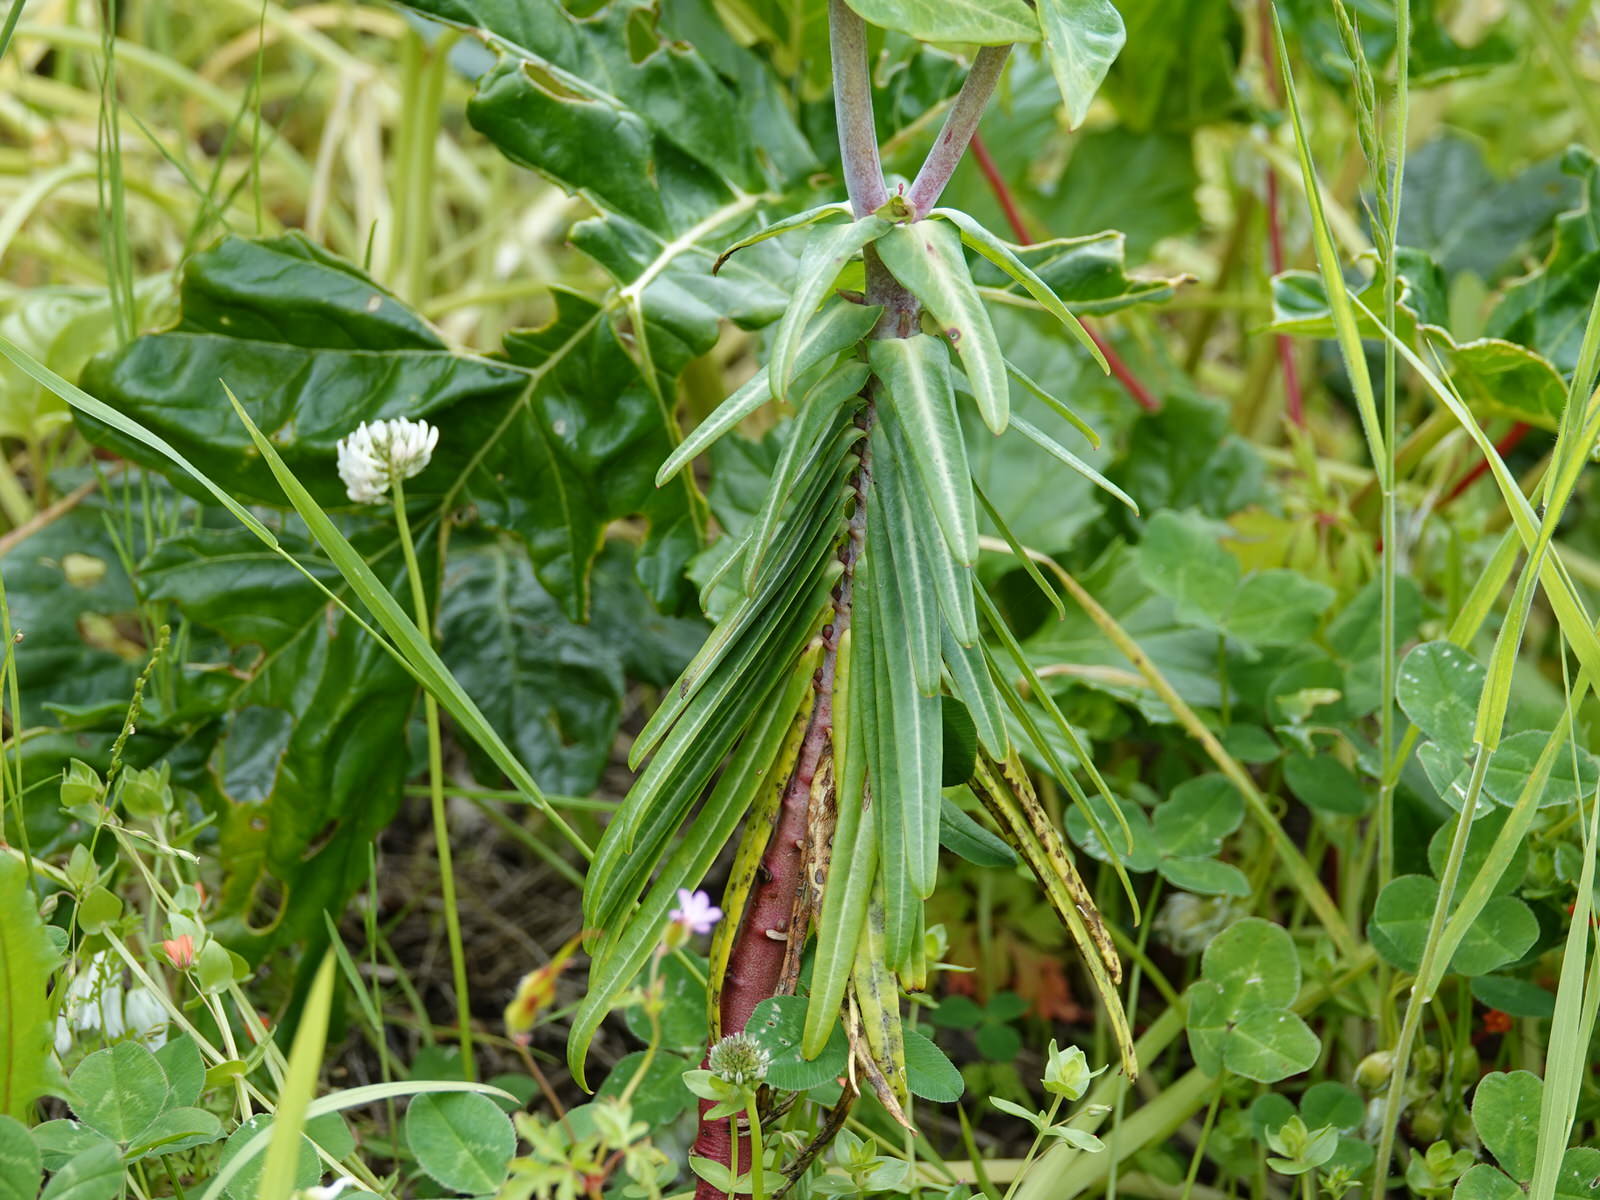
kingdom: Plantae
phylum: Tracheophyta
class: Magnoliopsida
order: Malpighiales
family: Euphorbiaceae
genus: Euphorbia
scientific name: Euphorbia lathyris
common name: Caper spurge
